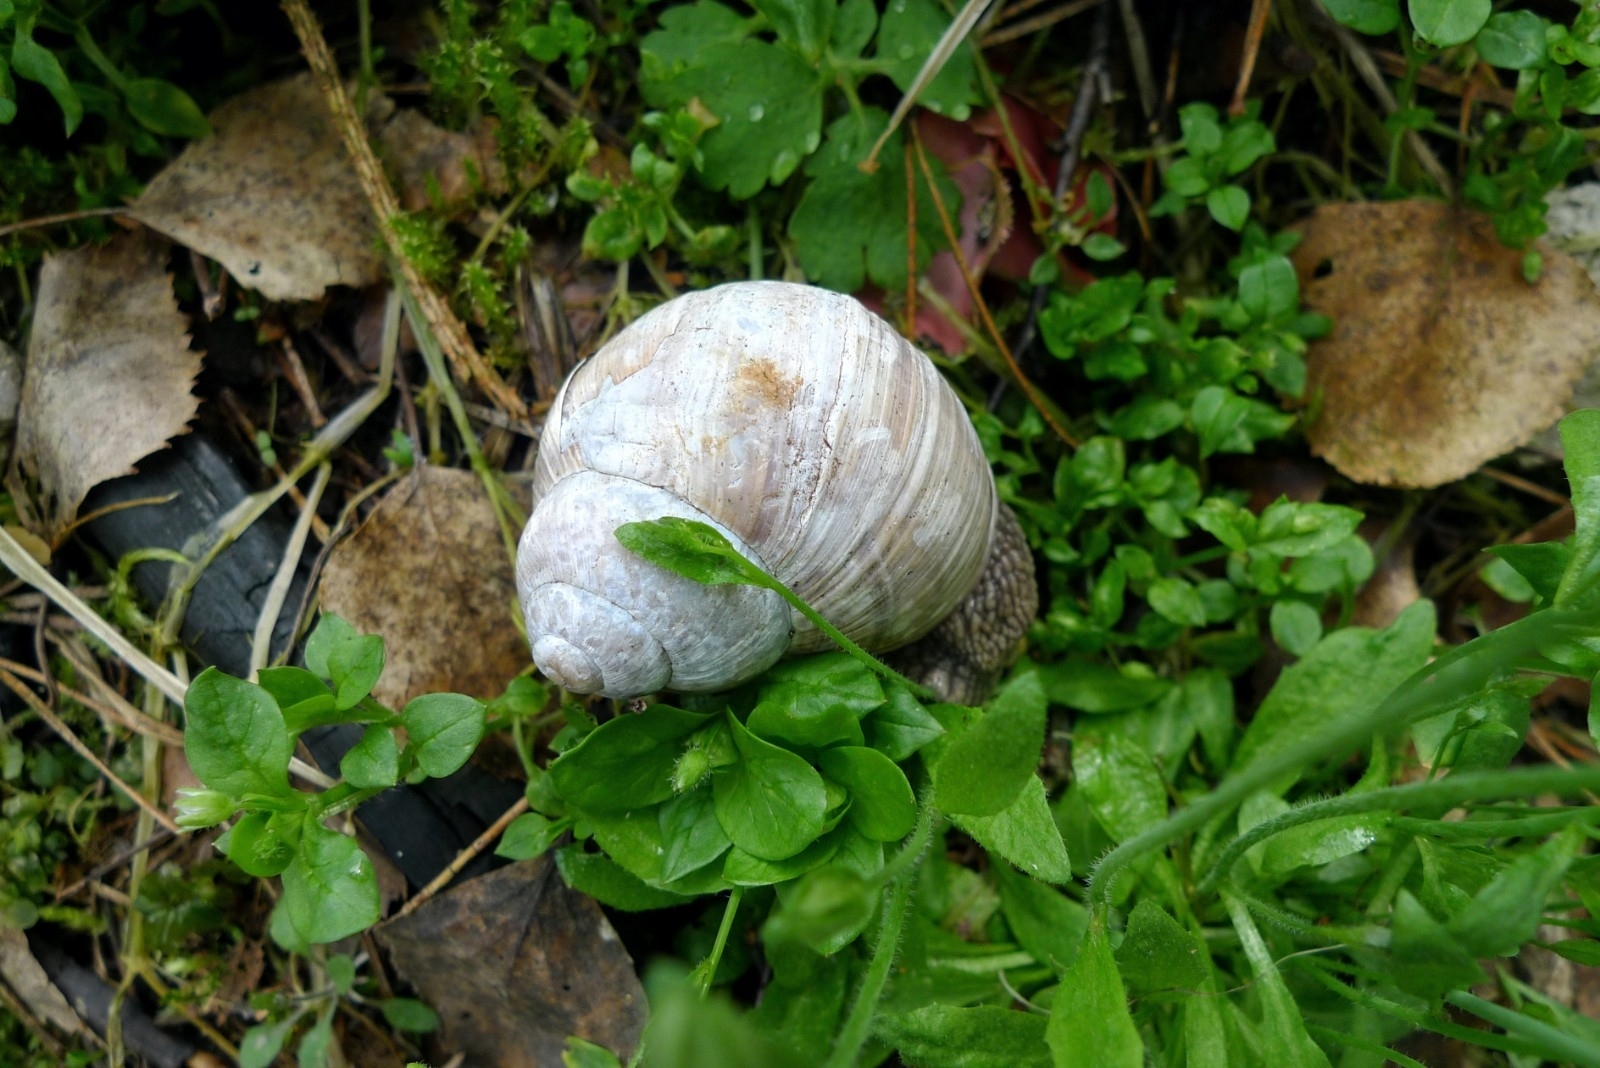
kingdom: Animalia
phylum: Mollusca
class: Gastropoda
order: Stylommatophora
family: Helicidae
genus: Helix
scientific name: Helix pomatia
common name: Roman snail
